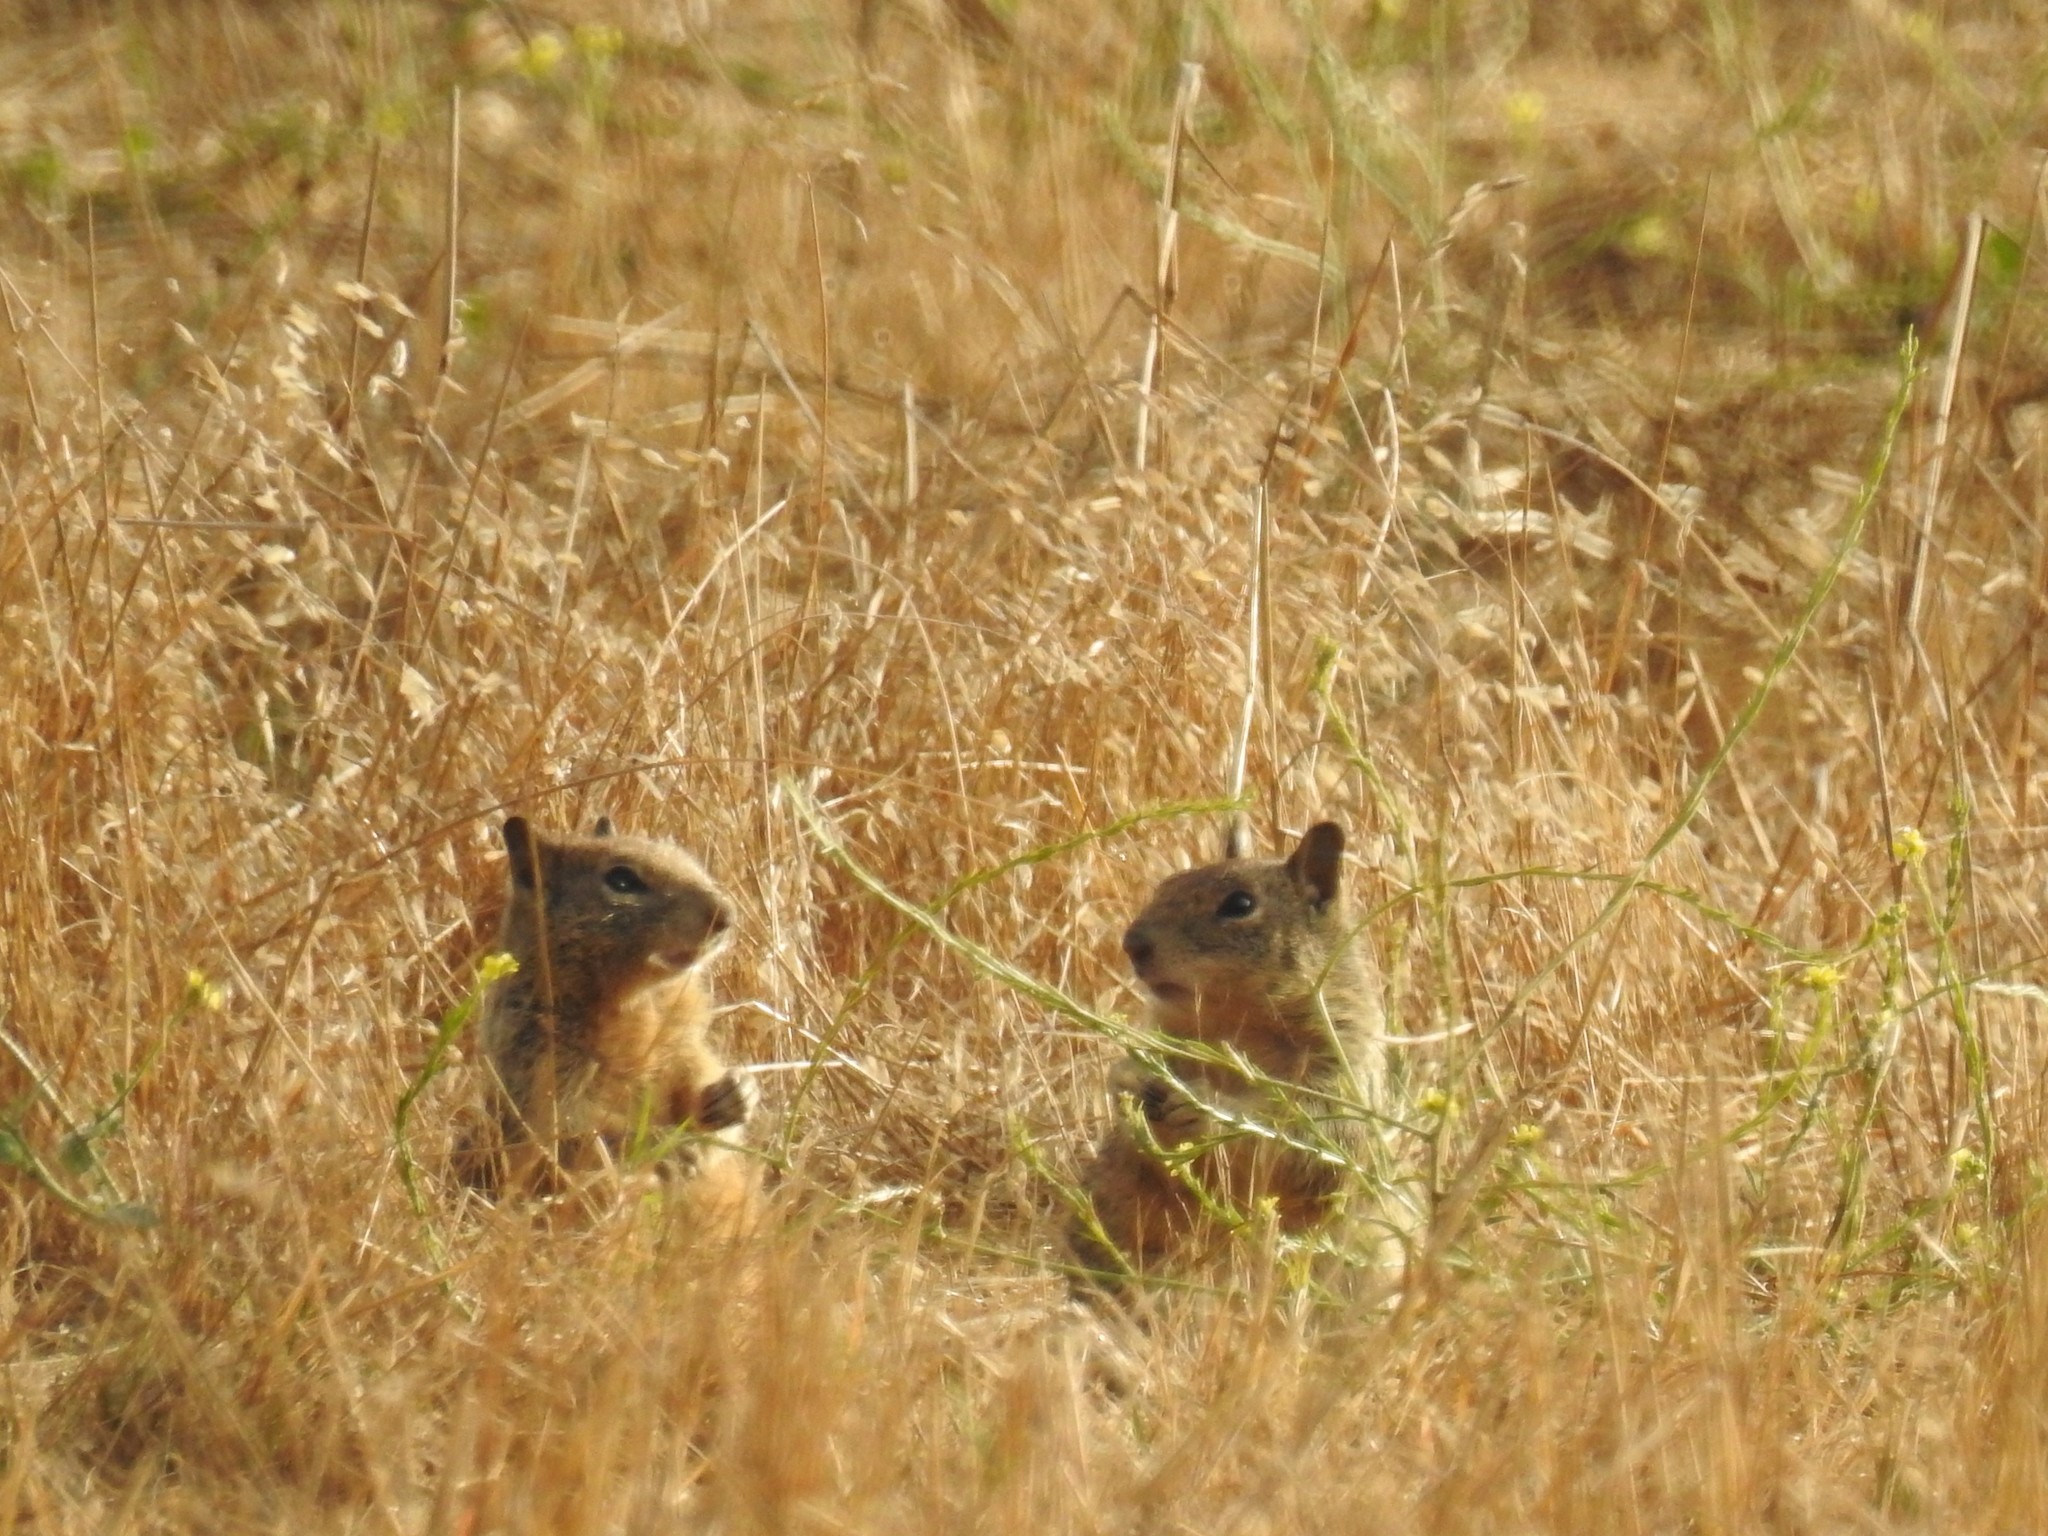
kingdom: Animalia
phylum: Chordata
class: Mammalia
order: Rodentia
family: Sciuridae
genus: Otospermophilus
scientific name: Otospermophilus beecheyi
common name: California ground squirrel
